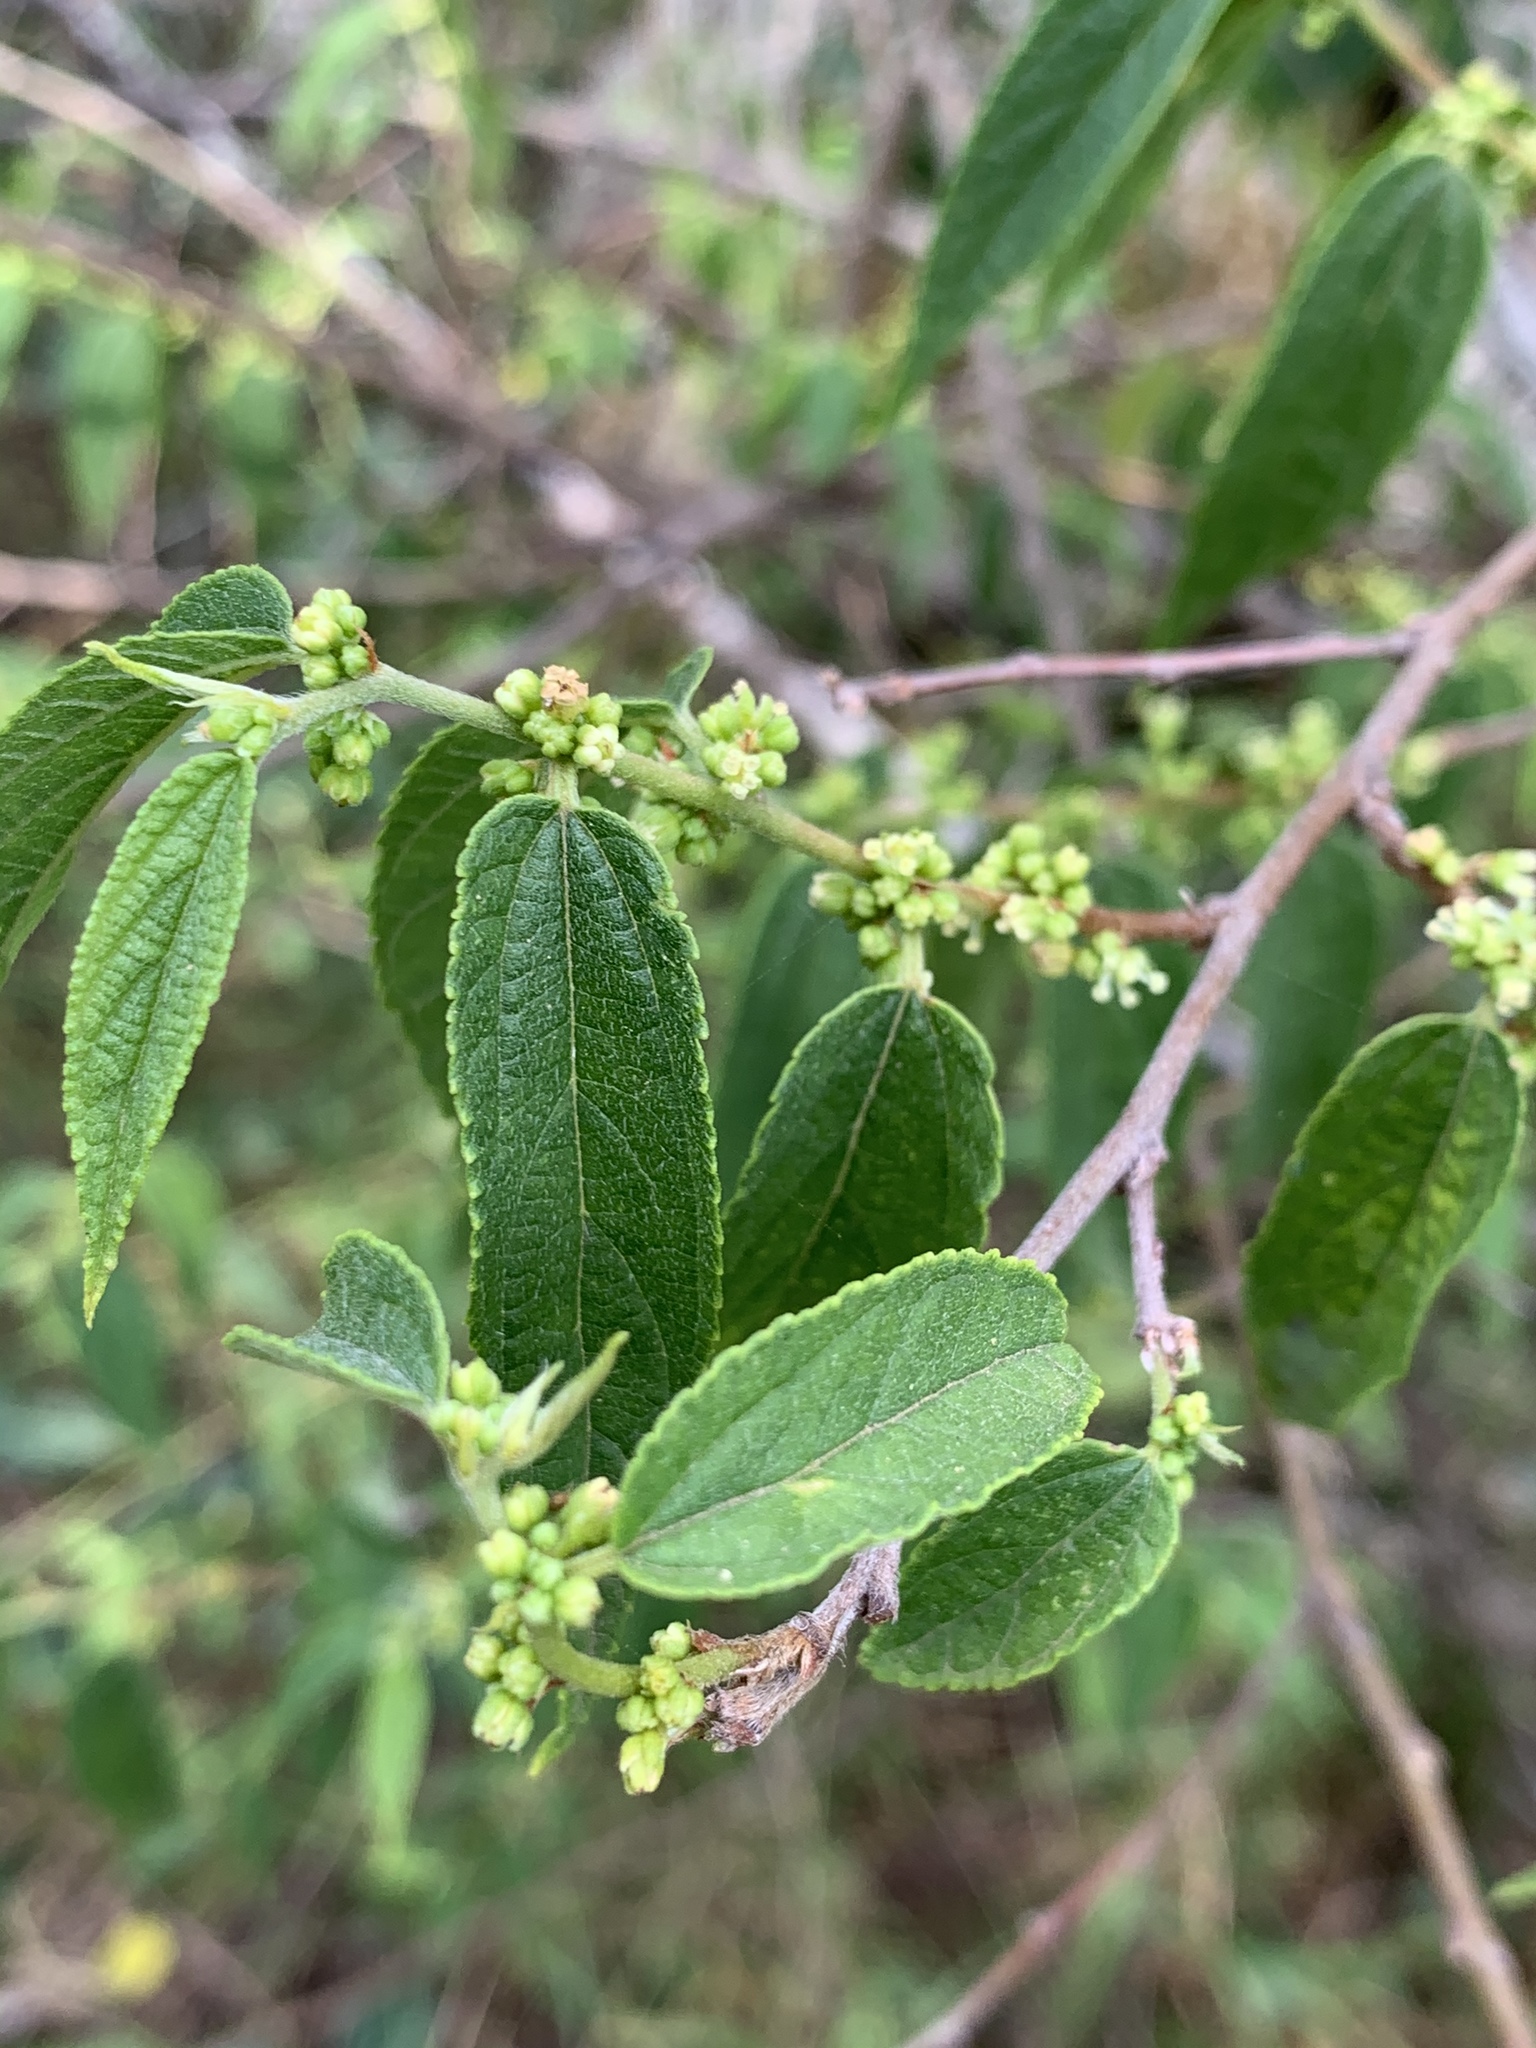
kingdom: Plantae
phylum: Tracheophyta
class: Magnoliopsida
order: Rosales
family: Cannabaceae
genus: Trema
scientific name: Trema tomentosum
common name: Peach-leaf-poisonbush
